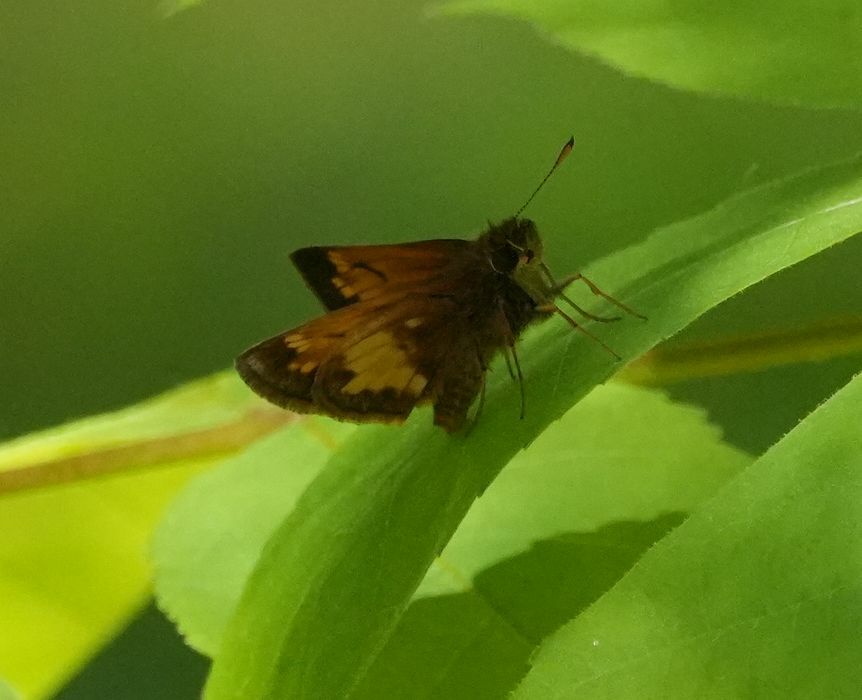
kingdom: Animalia
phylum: Arthropoda
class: Insecta
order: Lepidoptera
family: Hesperiidae
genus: Lon
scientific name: Lon hobomok
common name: Hobomok skipper
